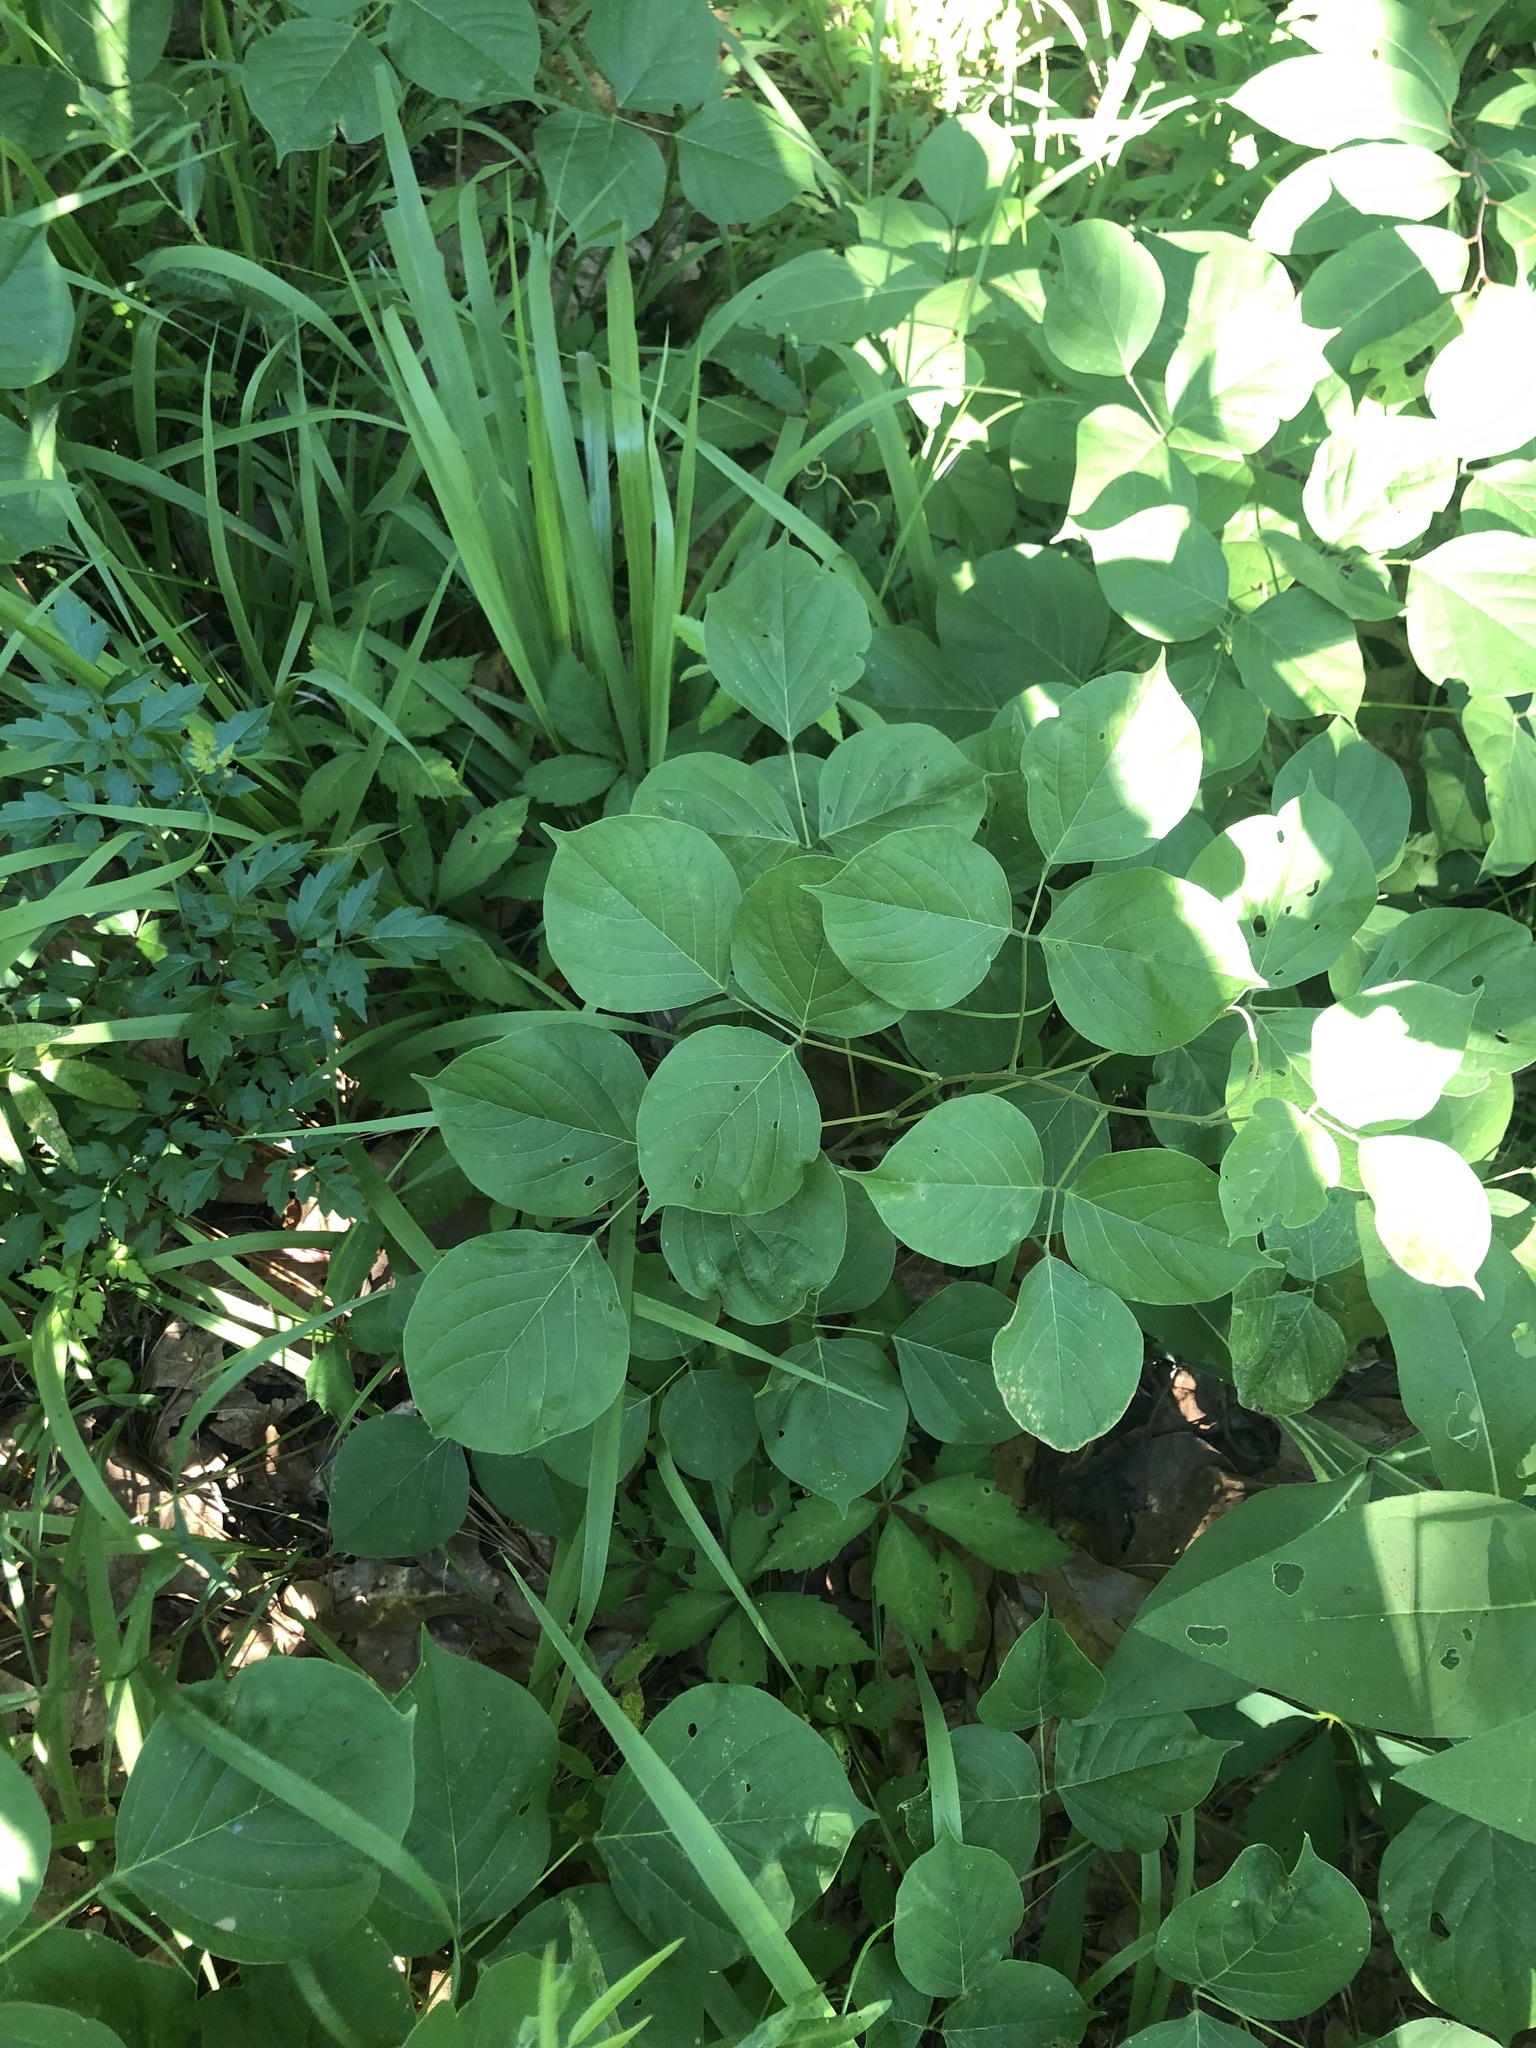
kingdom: Plantae
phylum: Tracheophyta
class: Magnoliopsida
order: Fabales
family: Fabaceae
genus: Lackeya
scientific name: Lackeya multiflora
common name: Boykin's clusterpea
